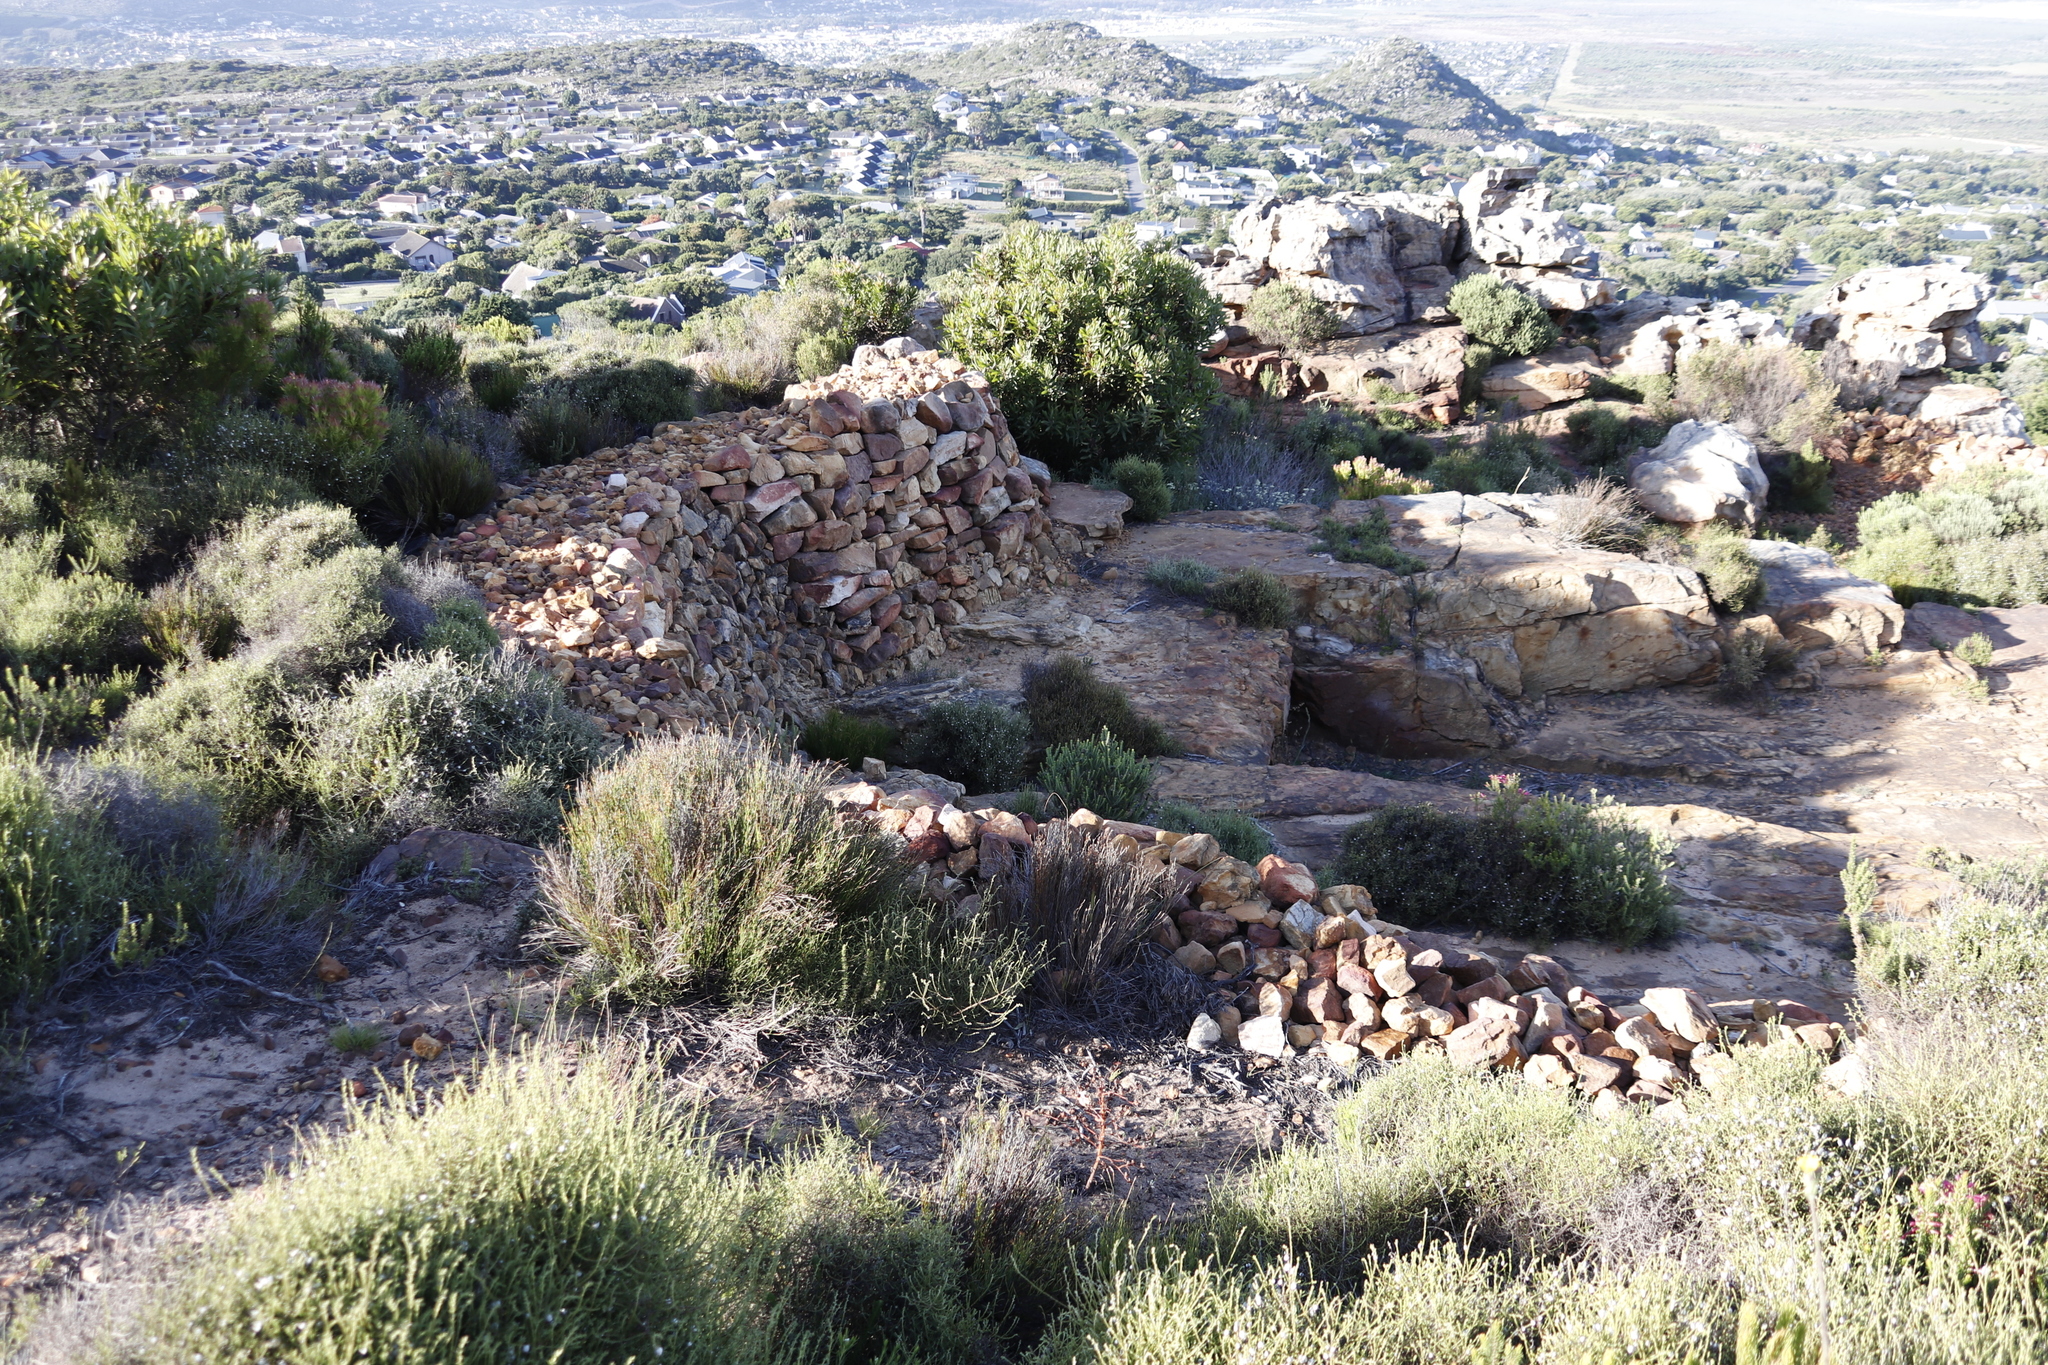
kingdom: Plantae
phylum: Tracheophyta
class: Magnoliopsida
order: Ericales
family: Ericaceae
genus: Erica
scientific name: Erica abietina
